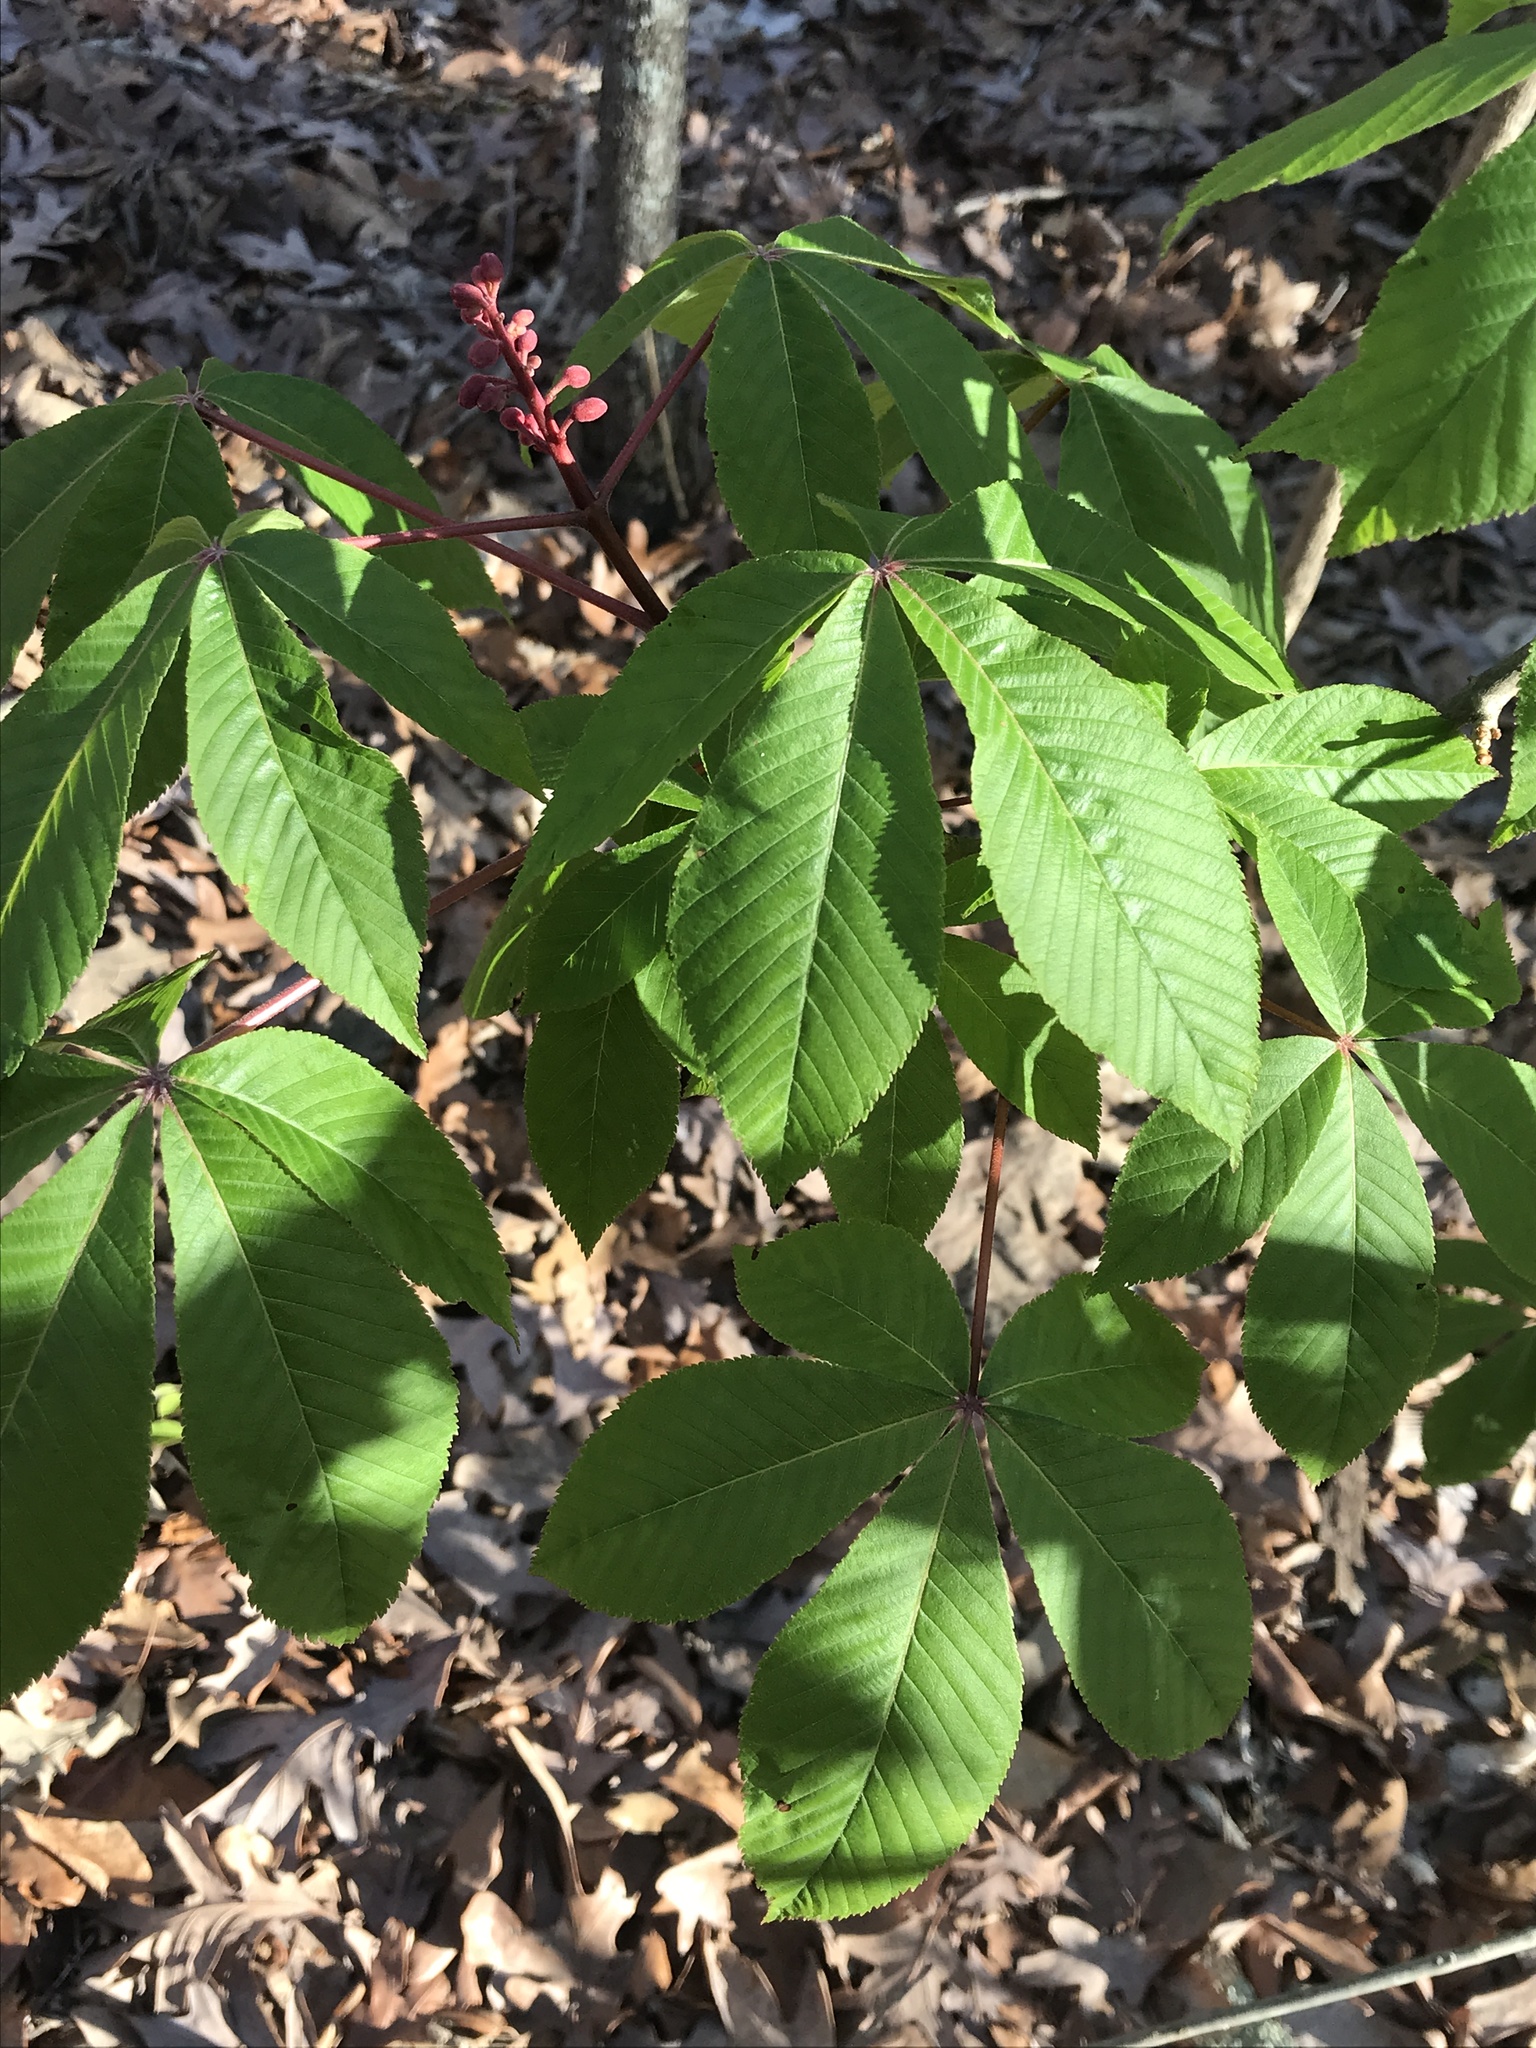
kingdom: Plantae
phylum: Tracheophyta
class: Magnoliopsida
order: Sapindales
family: Sapindaceae
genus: Aesculus
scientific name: Aesculus pavia
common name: Red buckeye
